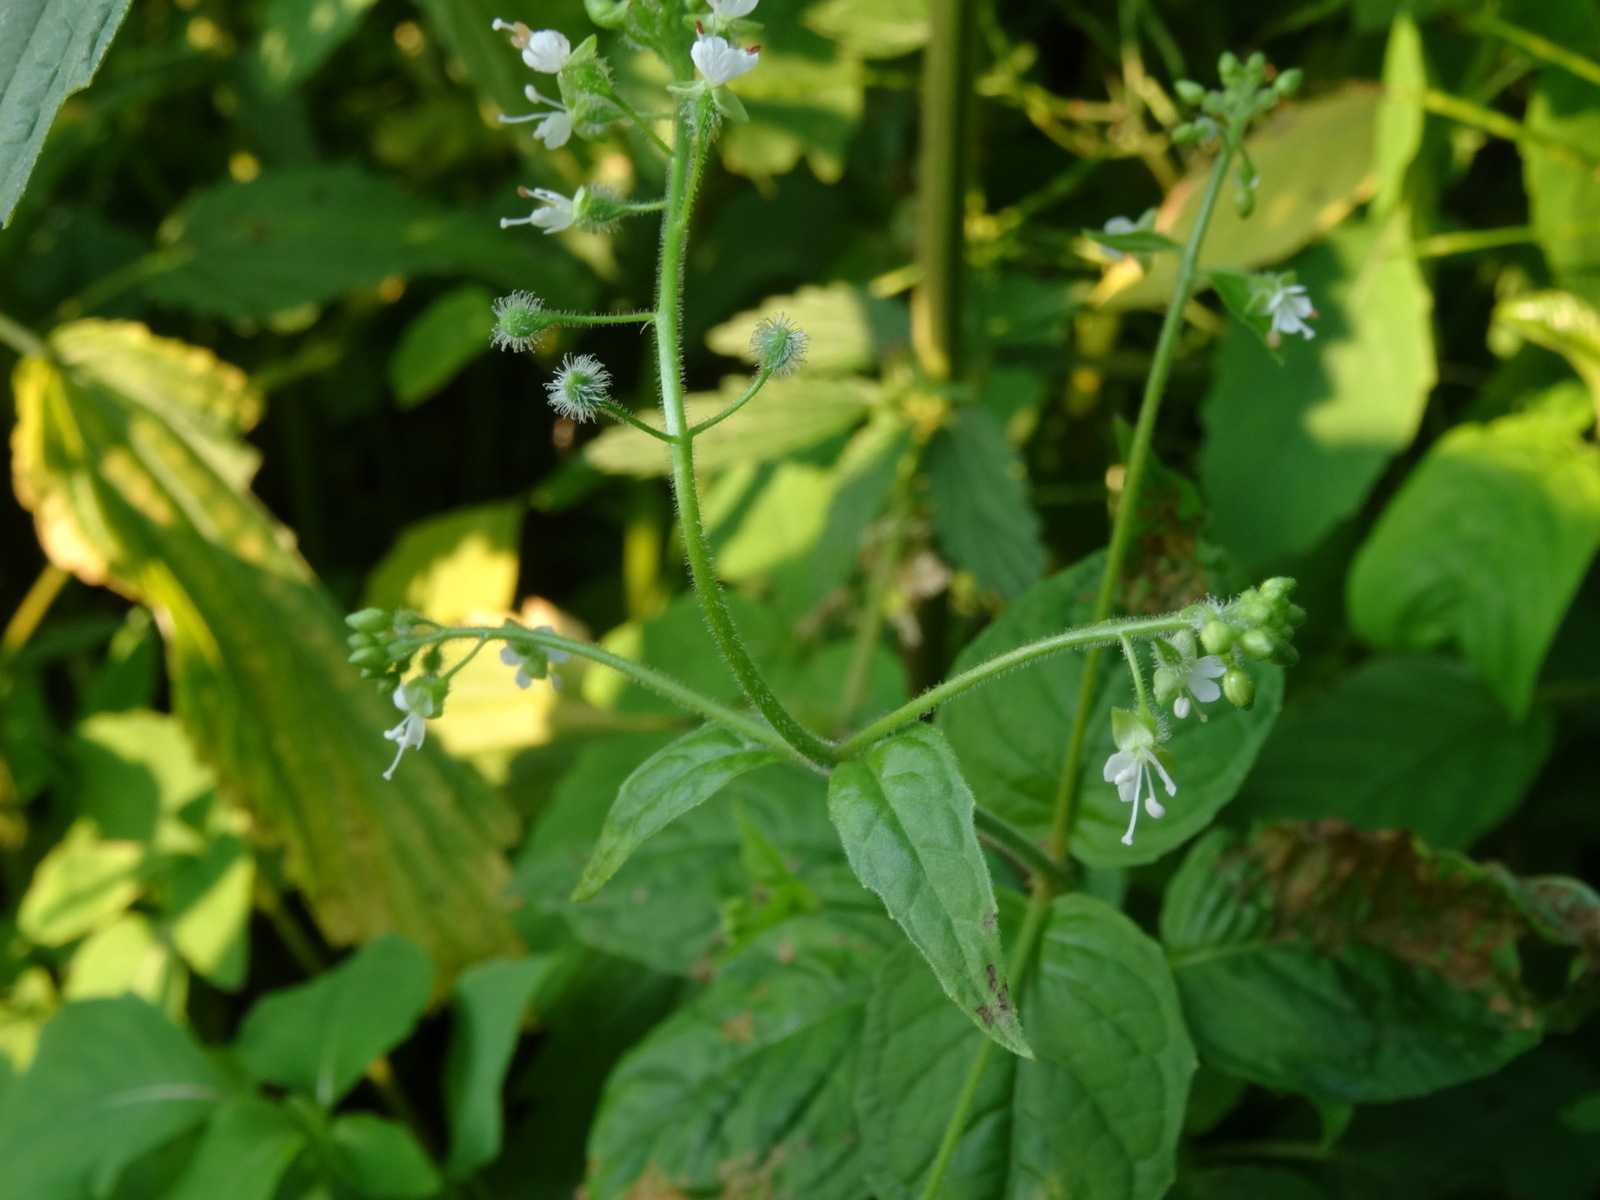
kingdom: Plantae
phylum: Tracheophyta
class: Magnoliopsida
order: Myrtales
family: Onagraceae
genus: Circaea
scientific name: Circaea canadensis
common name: Broad-leaved enchanter's nightshade
